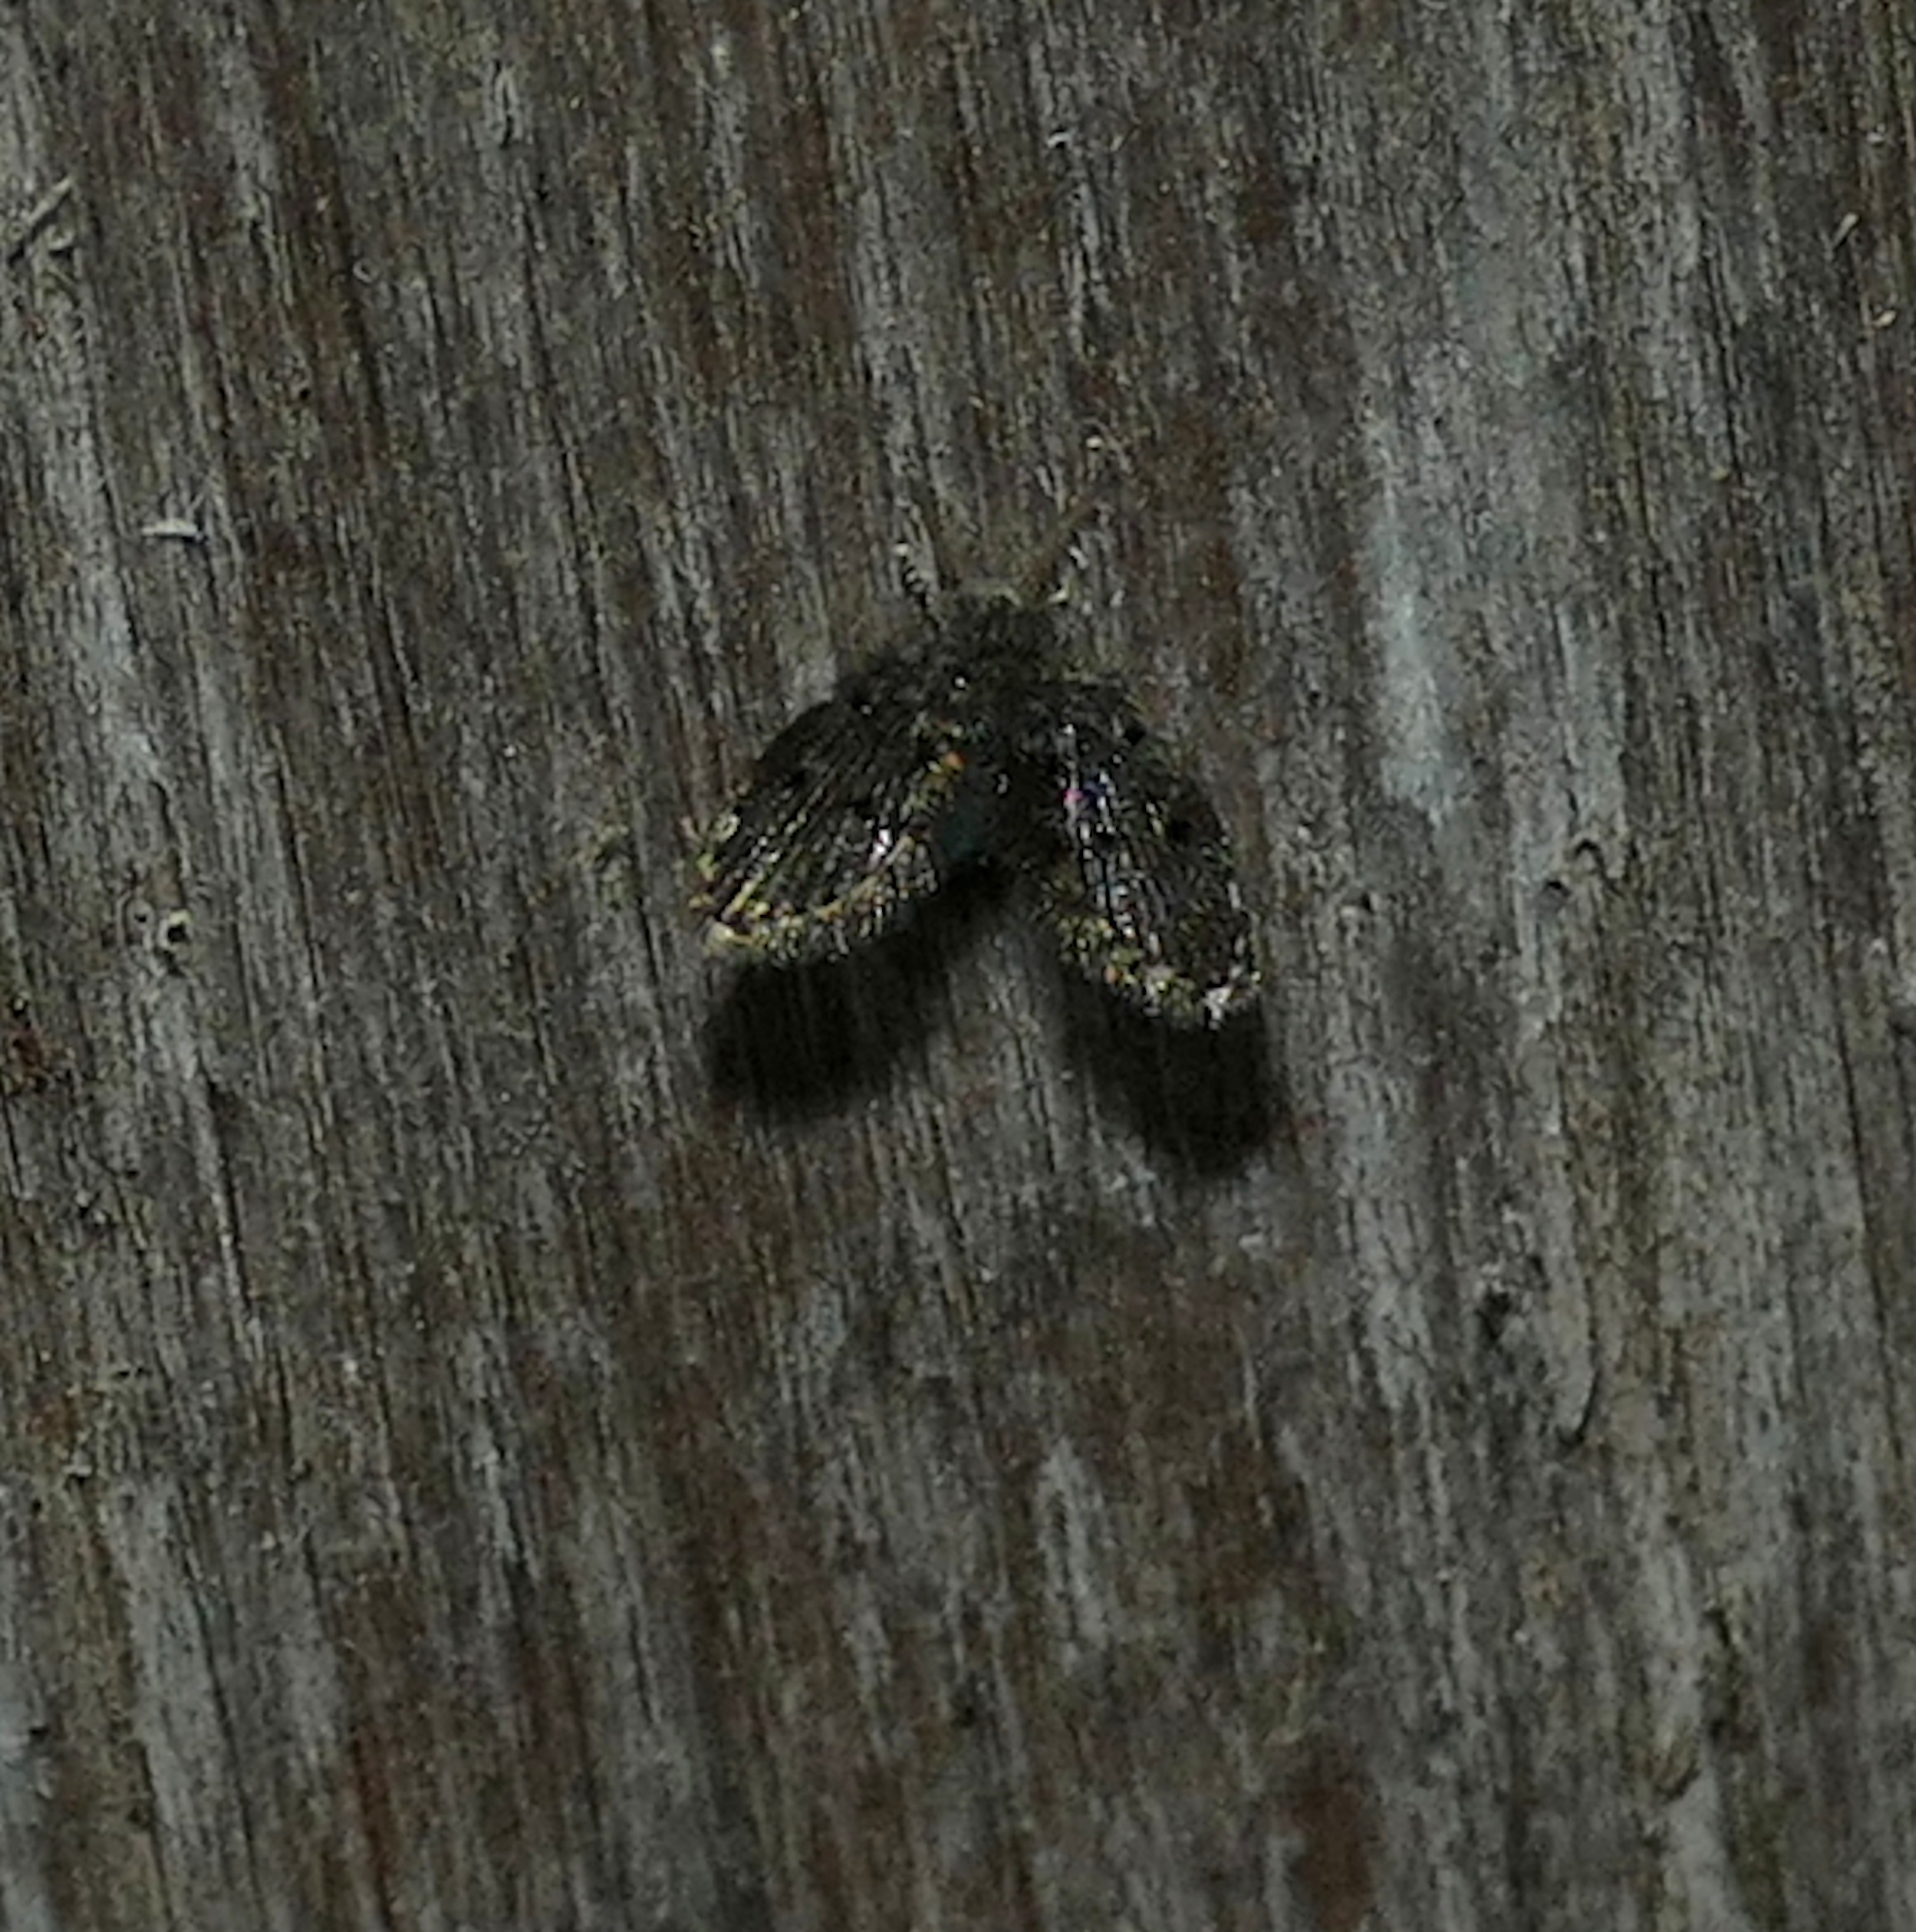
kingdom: Animalia
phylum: Arthropoda
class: Insecta
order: Diptera
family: Psychodidae
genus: Clogmia
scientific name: Clogmia albipunctatus
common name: White-spotted moth fly
